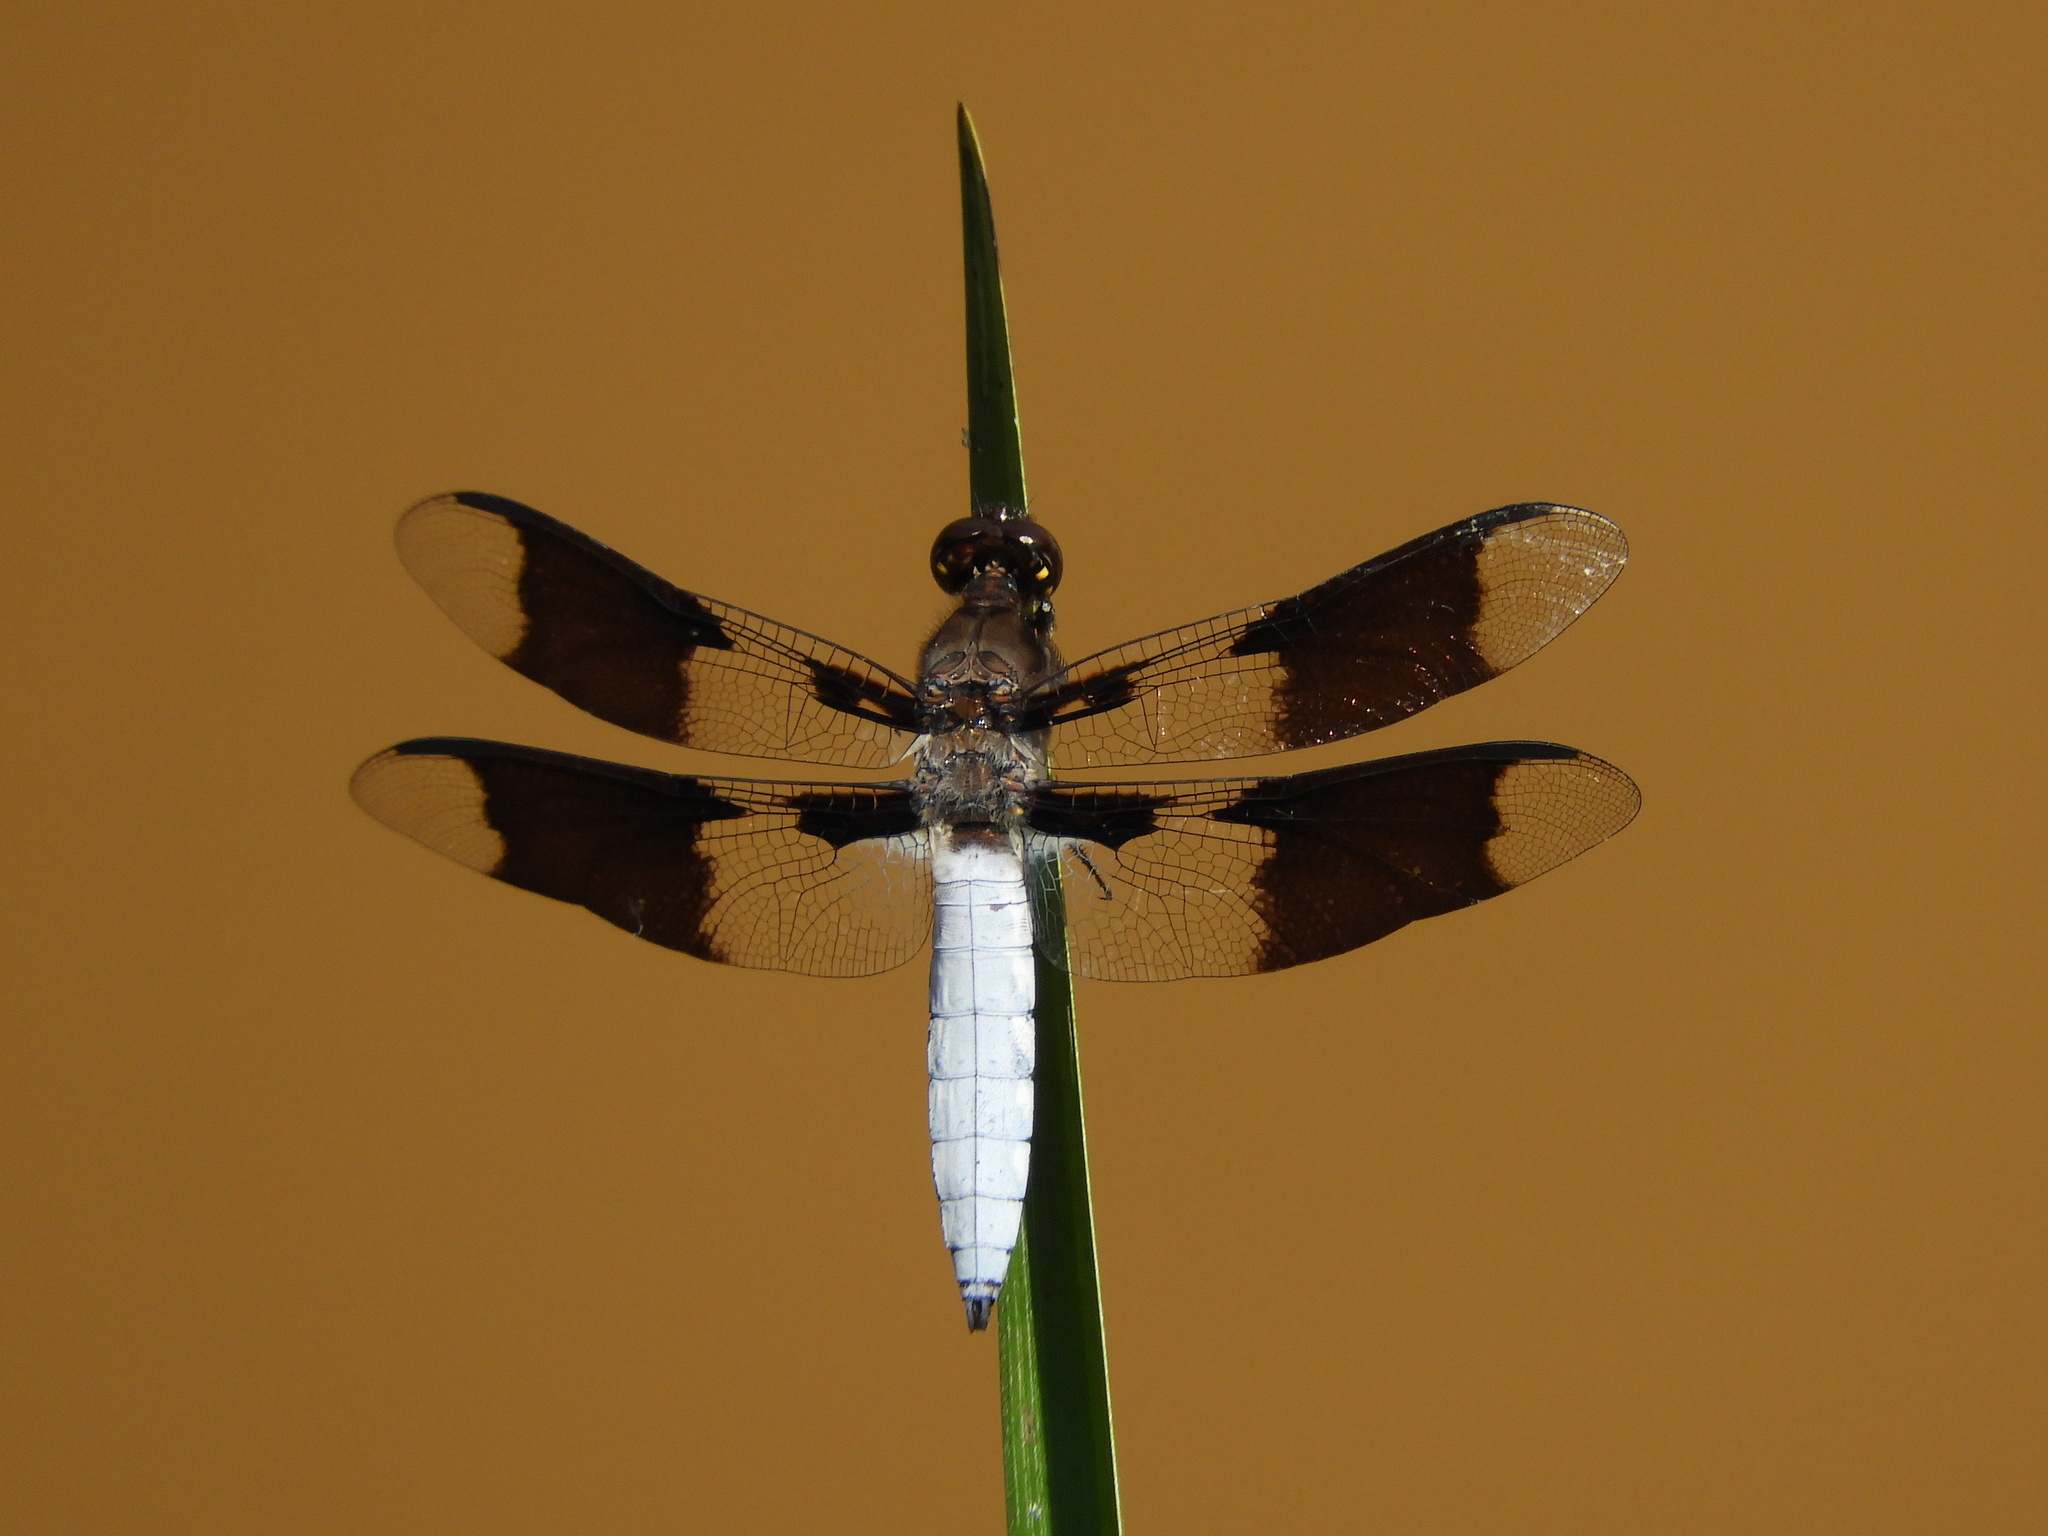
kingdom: Animalia
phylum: Arthropoda
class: Insecta
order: Odonata
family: Libellulidae
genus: Plathemis
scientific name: Plathemis lydia
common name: Common whitetail
